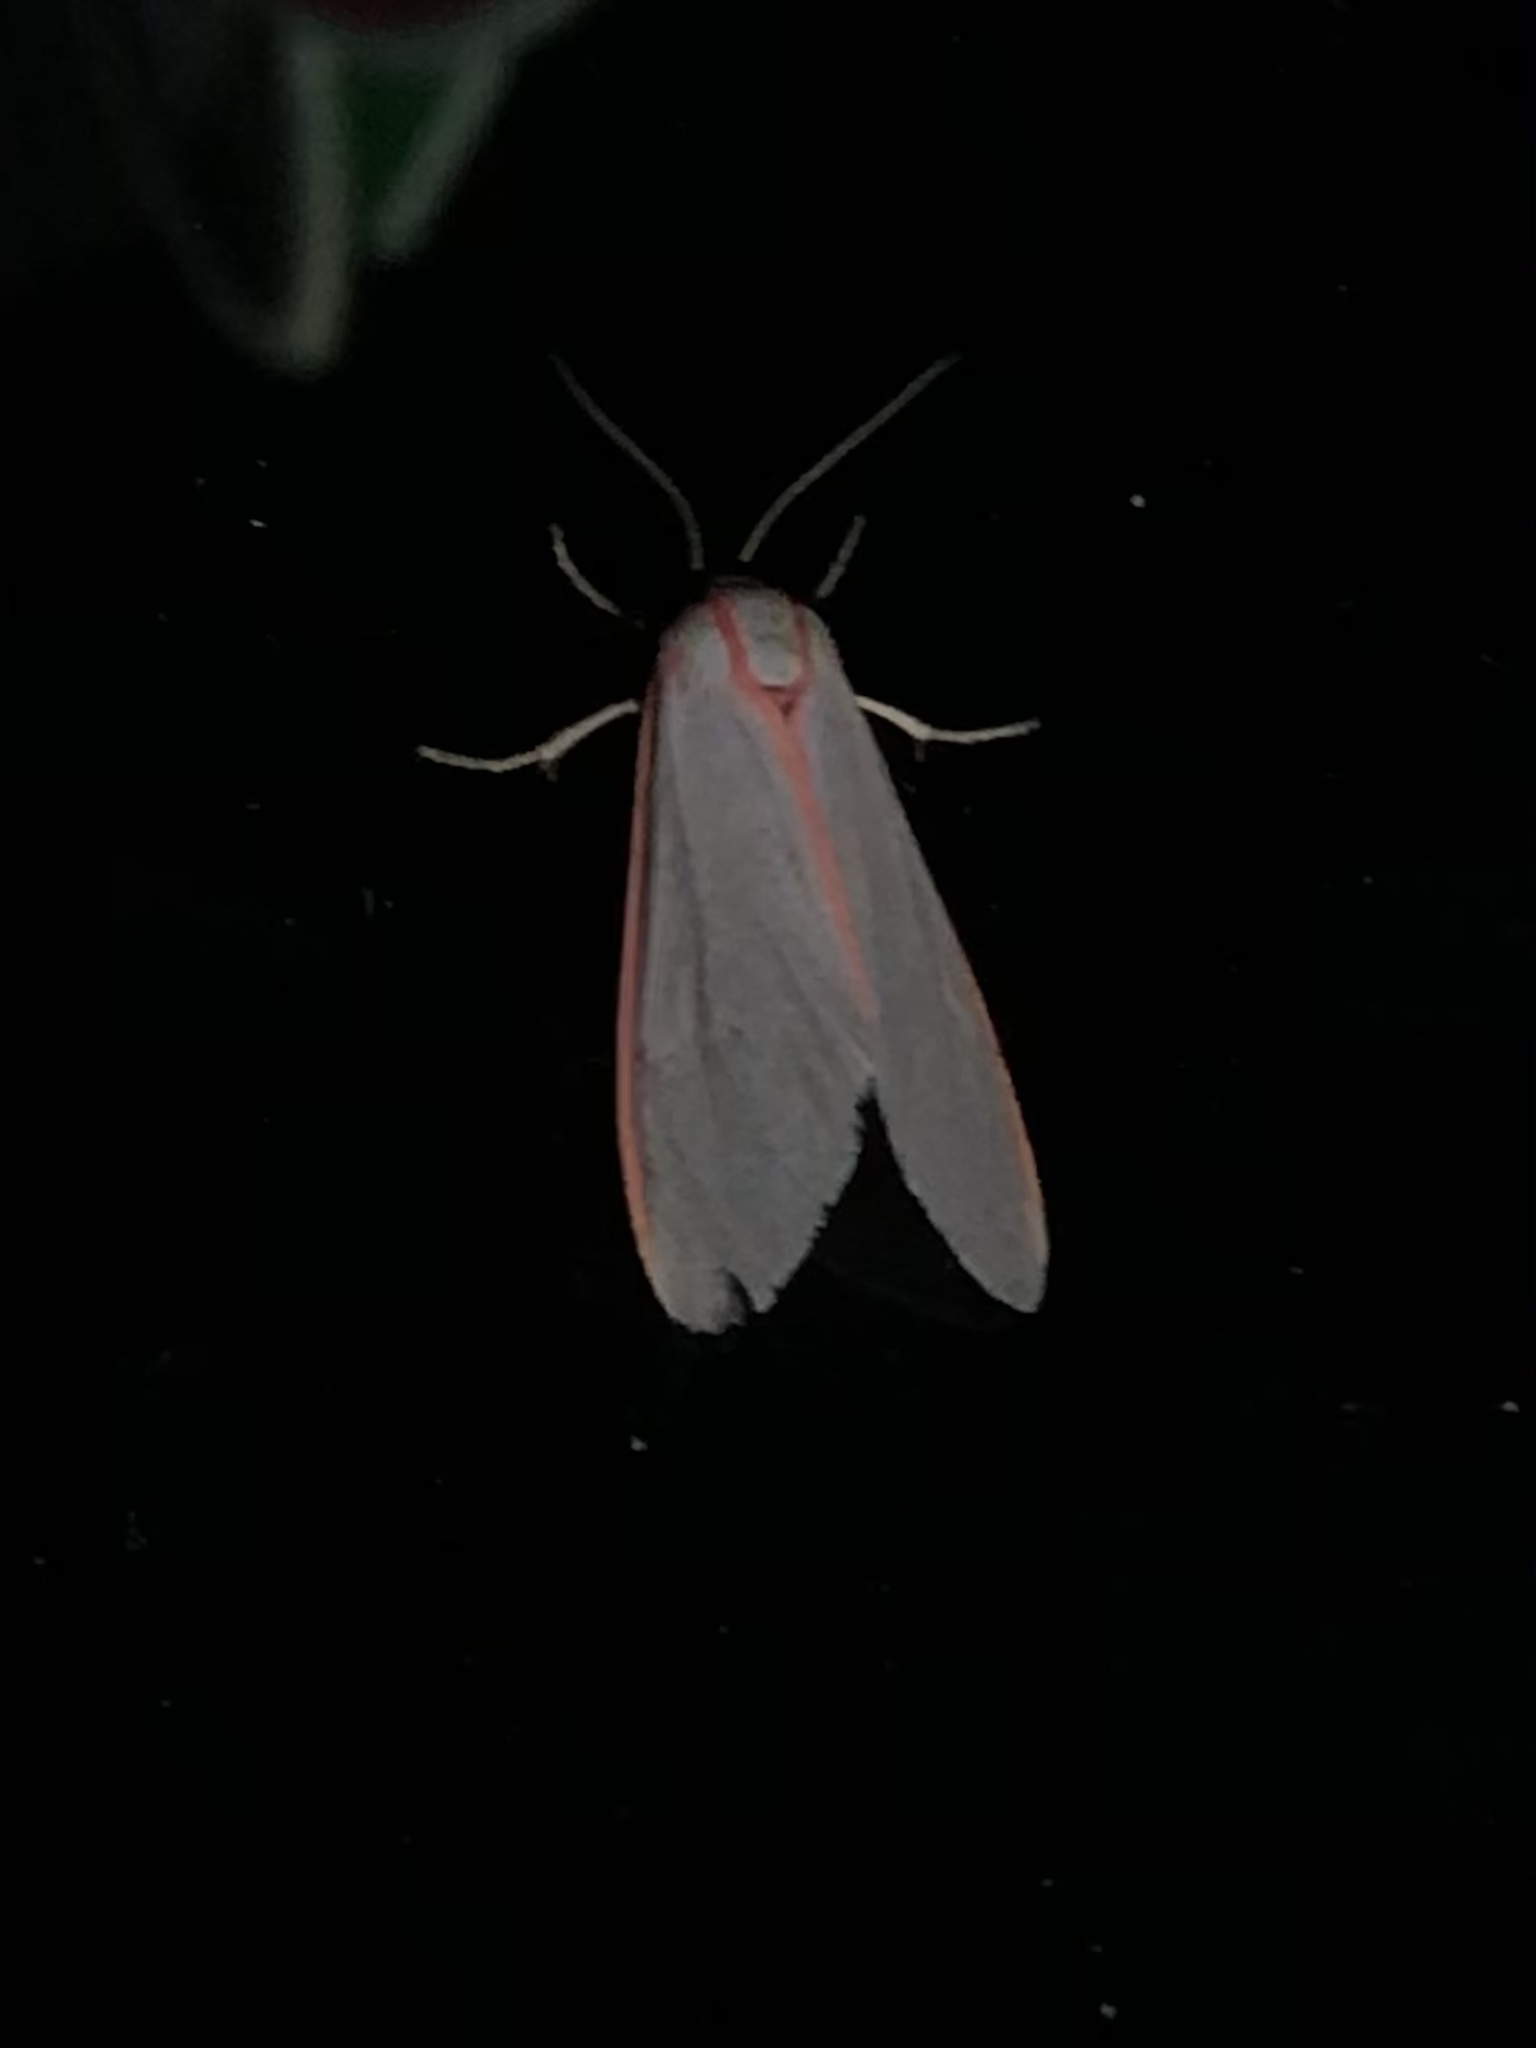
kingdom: Animalia
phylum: Arthropoda
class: Insecta
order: Lepidoptera
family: Erebidae
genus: Pygarctia
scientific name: Pygarctia spraguei
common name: Sprague's pygarctica
